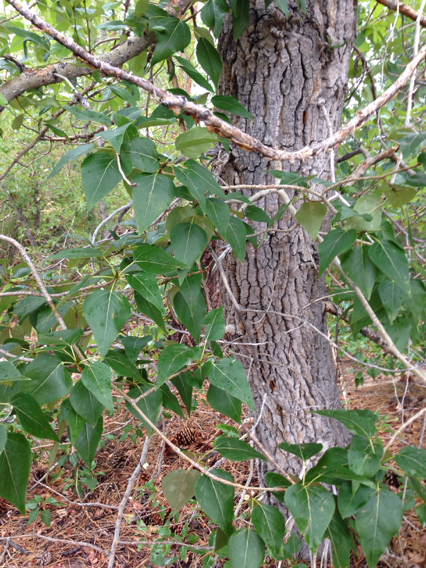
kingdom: Plantae
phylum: Tracheophyta
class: Magnoliopsida
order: Malpighiales
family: Salicaceae
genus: Populus
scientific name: Populus trichocarpa
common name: Black cottonwood
